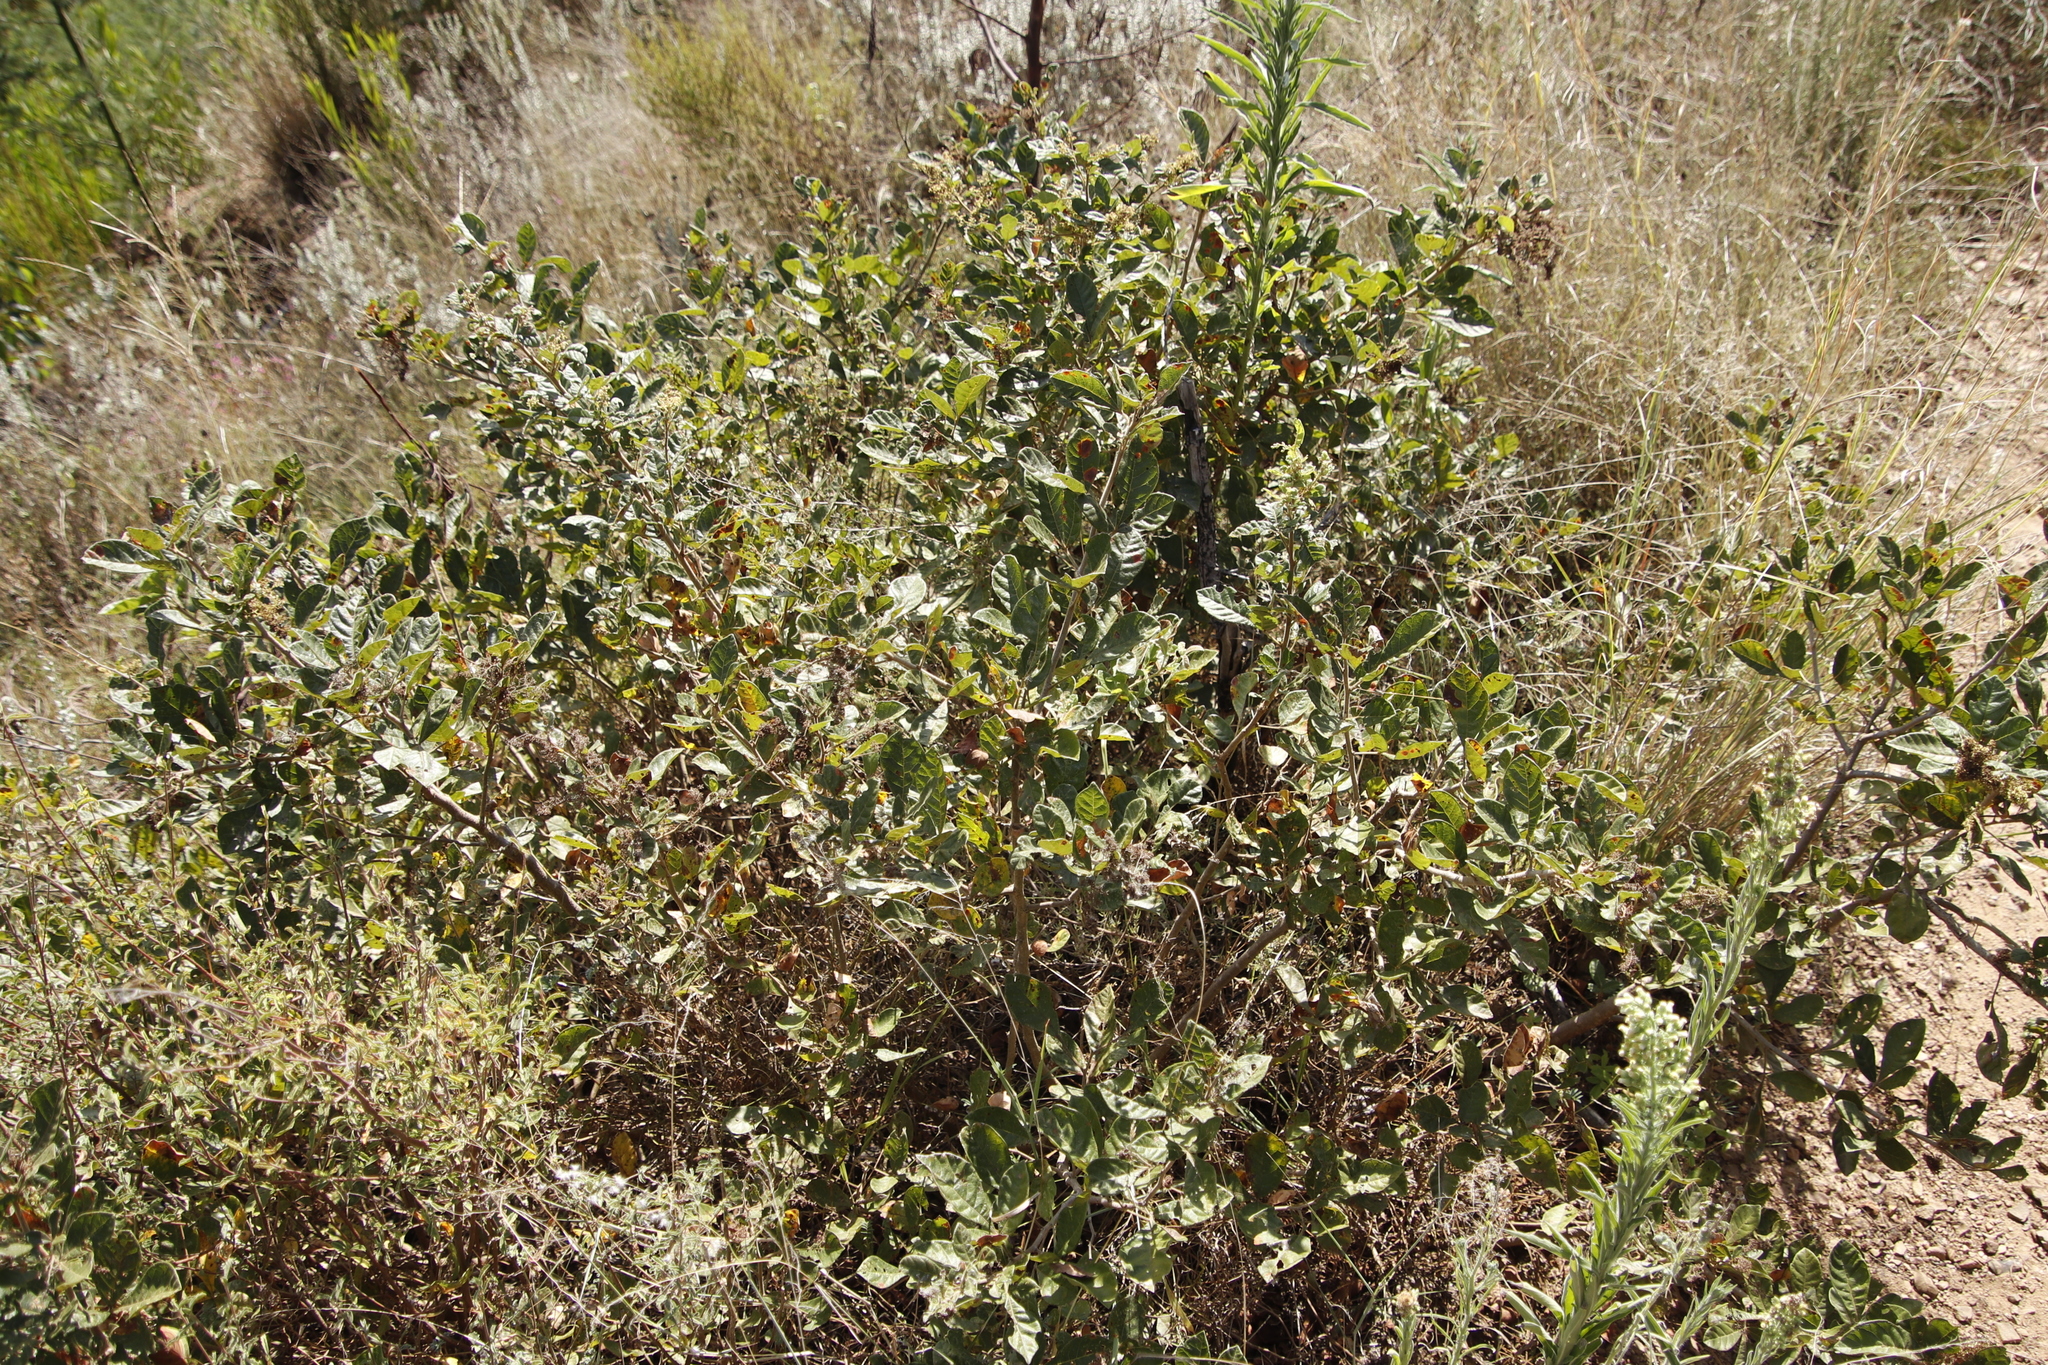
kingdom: Plantae
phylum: Tracheophyta
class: Magnoliopsida
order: Sapindales
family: Anacardiaceae
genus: Searsia
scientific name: Searsia rehmanniana
